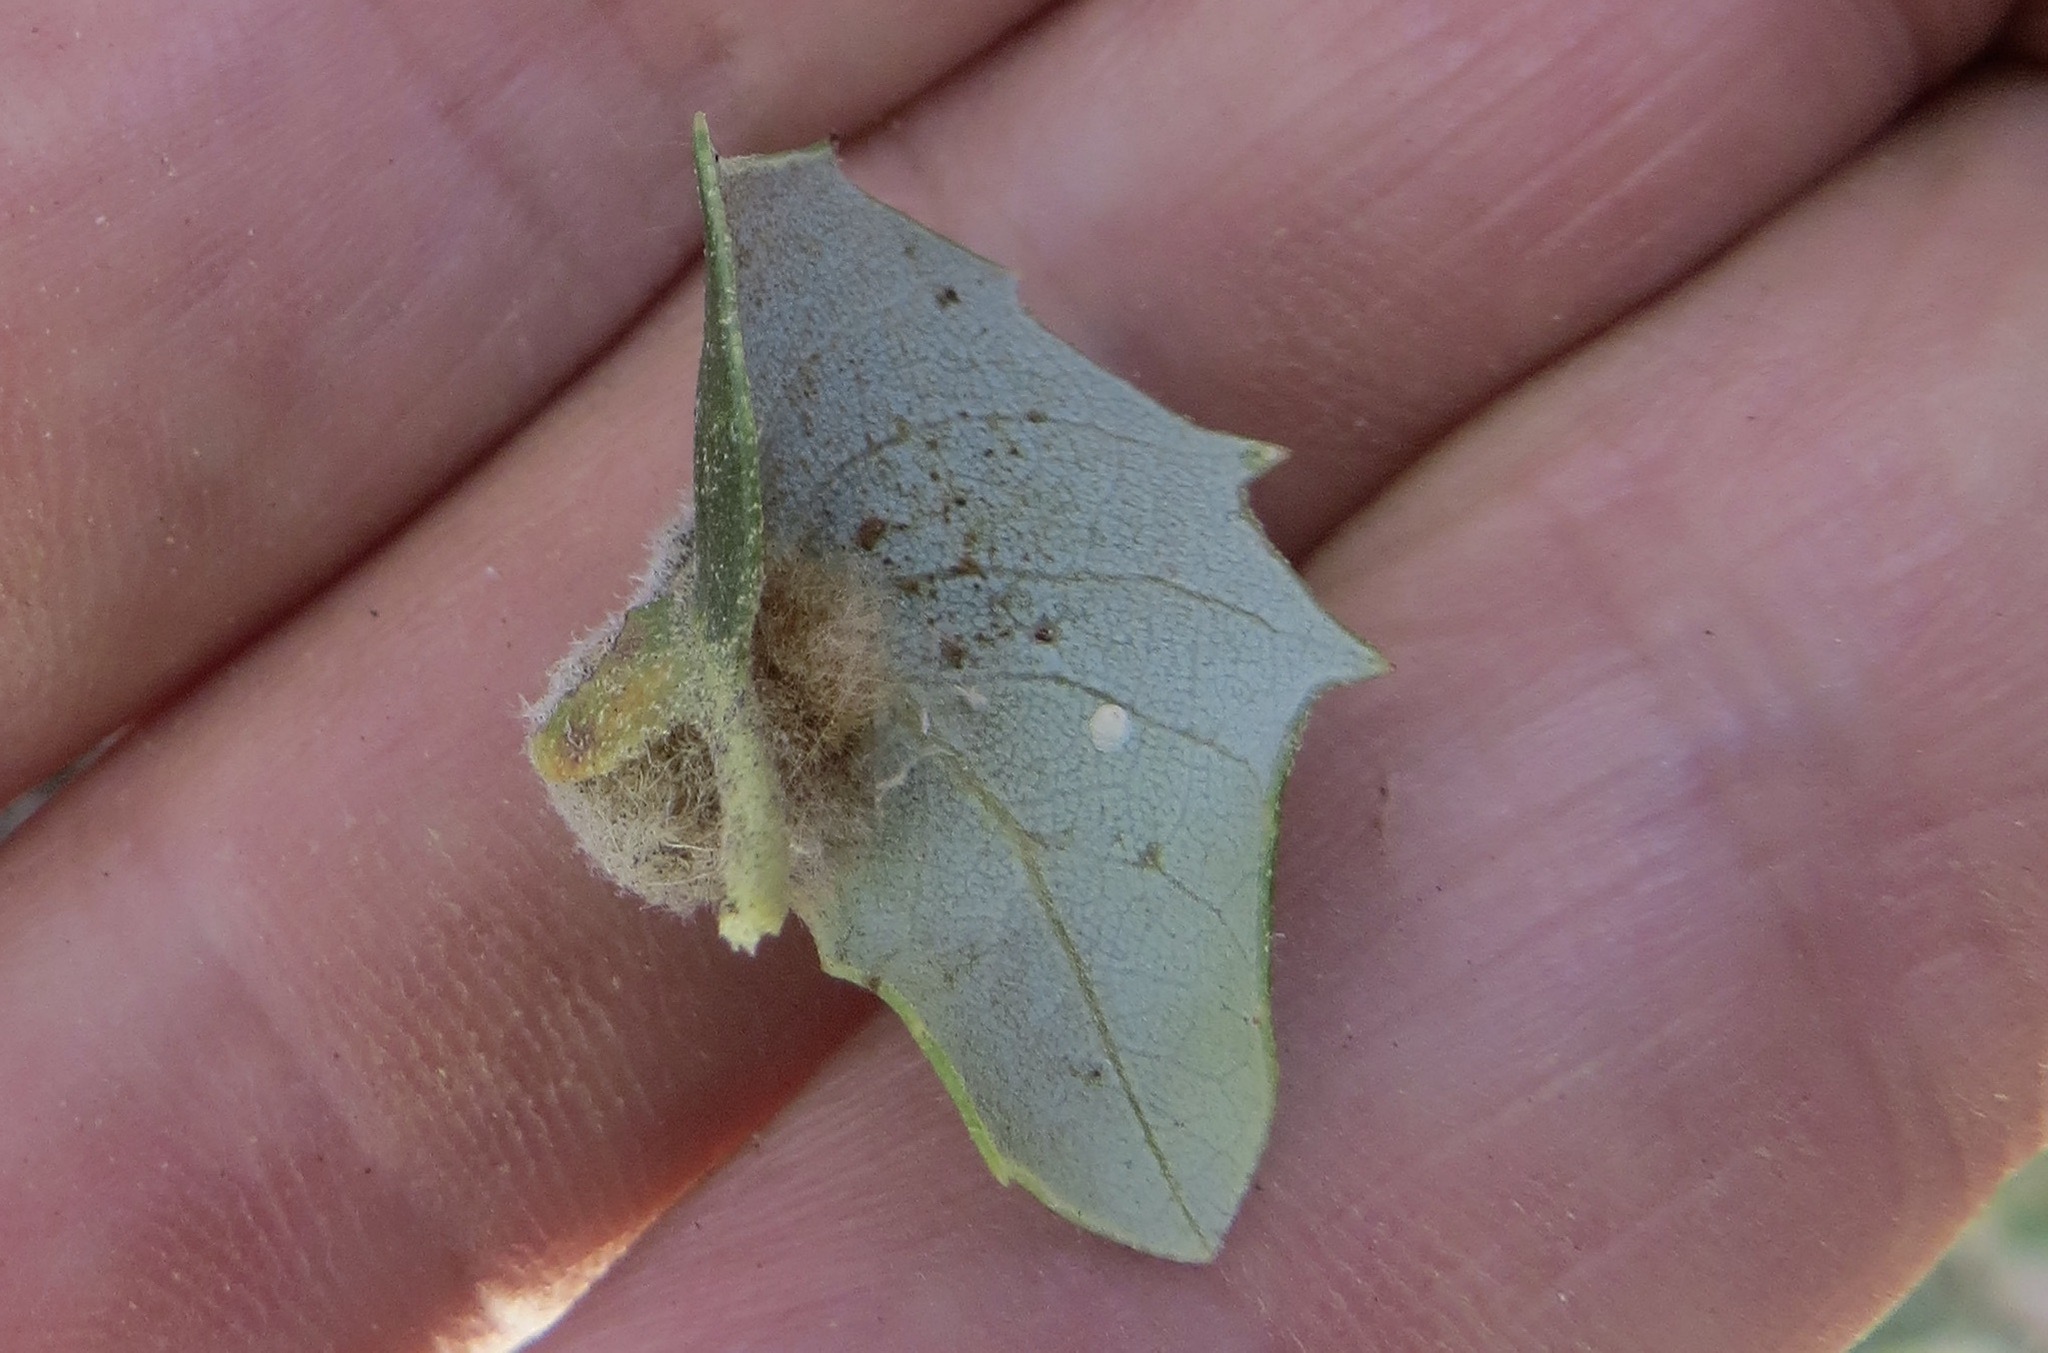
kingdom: Animalia
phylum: Arthropoda
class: Insecta
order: Hymenoptera
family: Cynipidae
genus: Disholandricus
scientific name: Disholandricus
